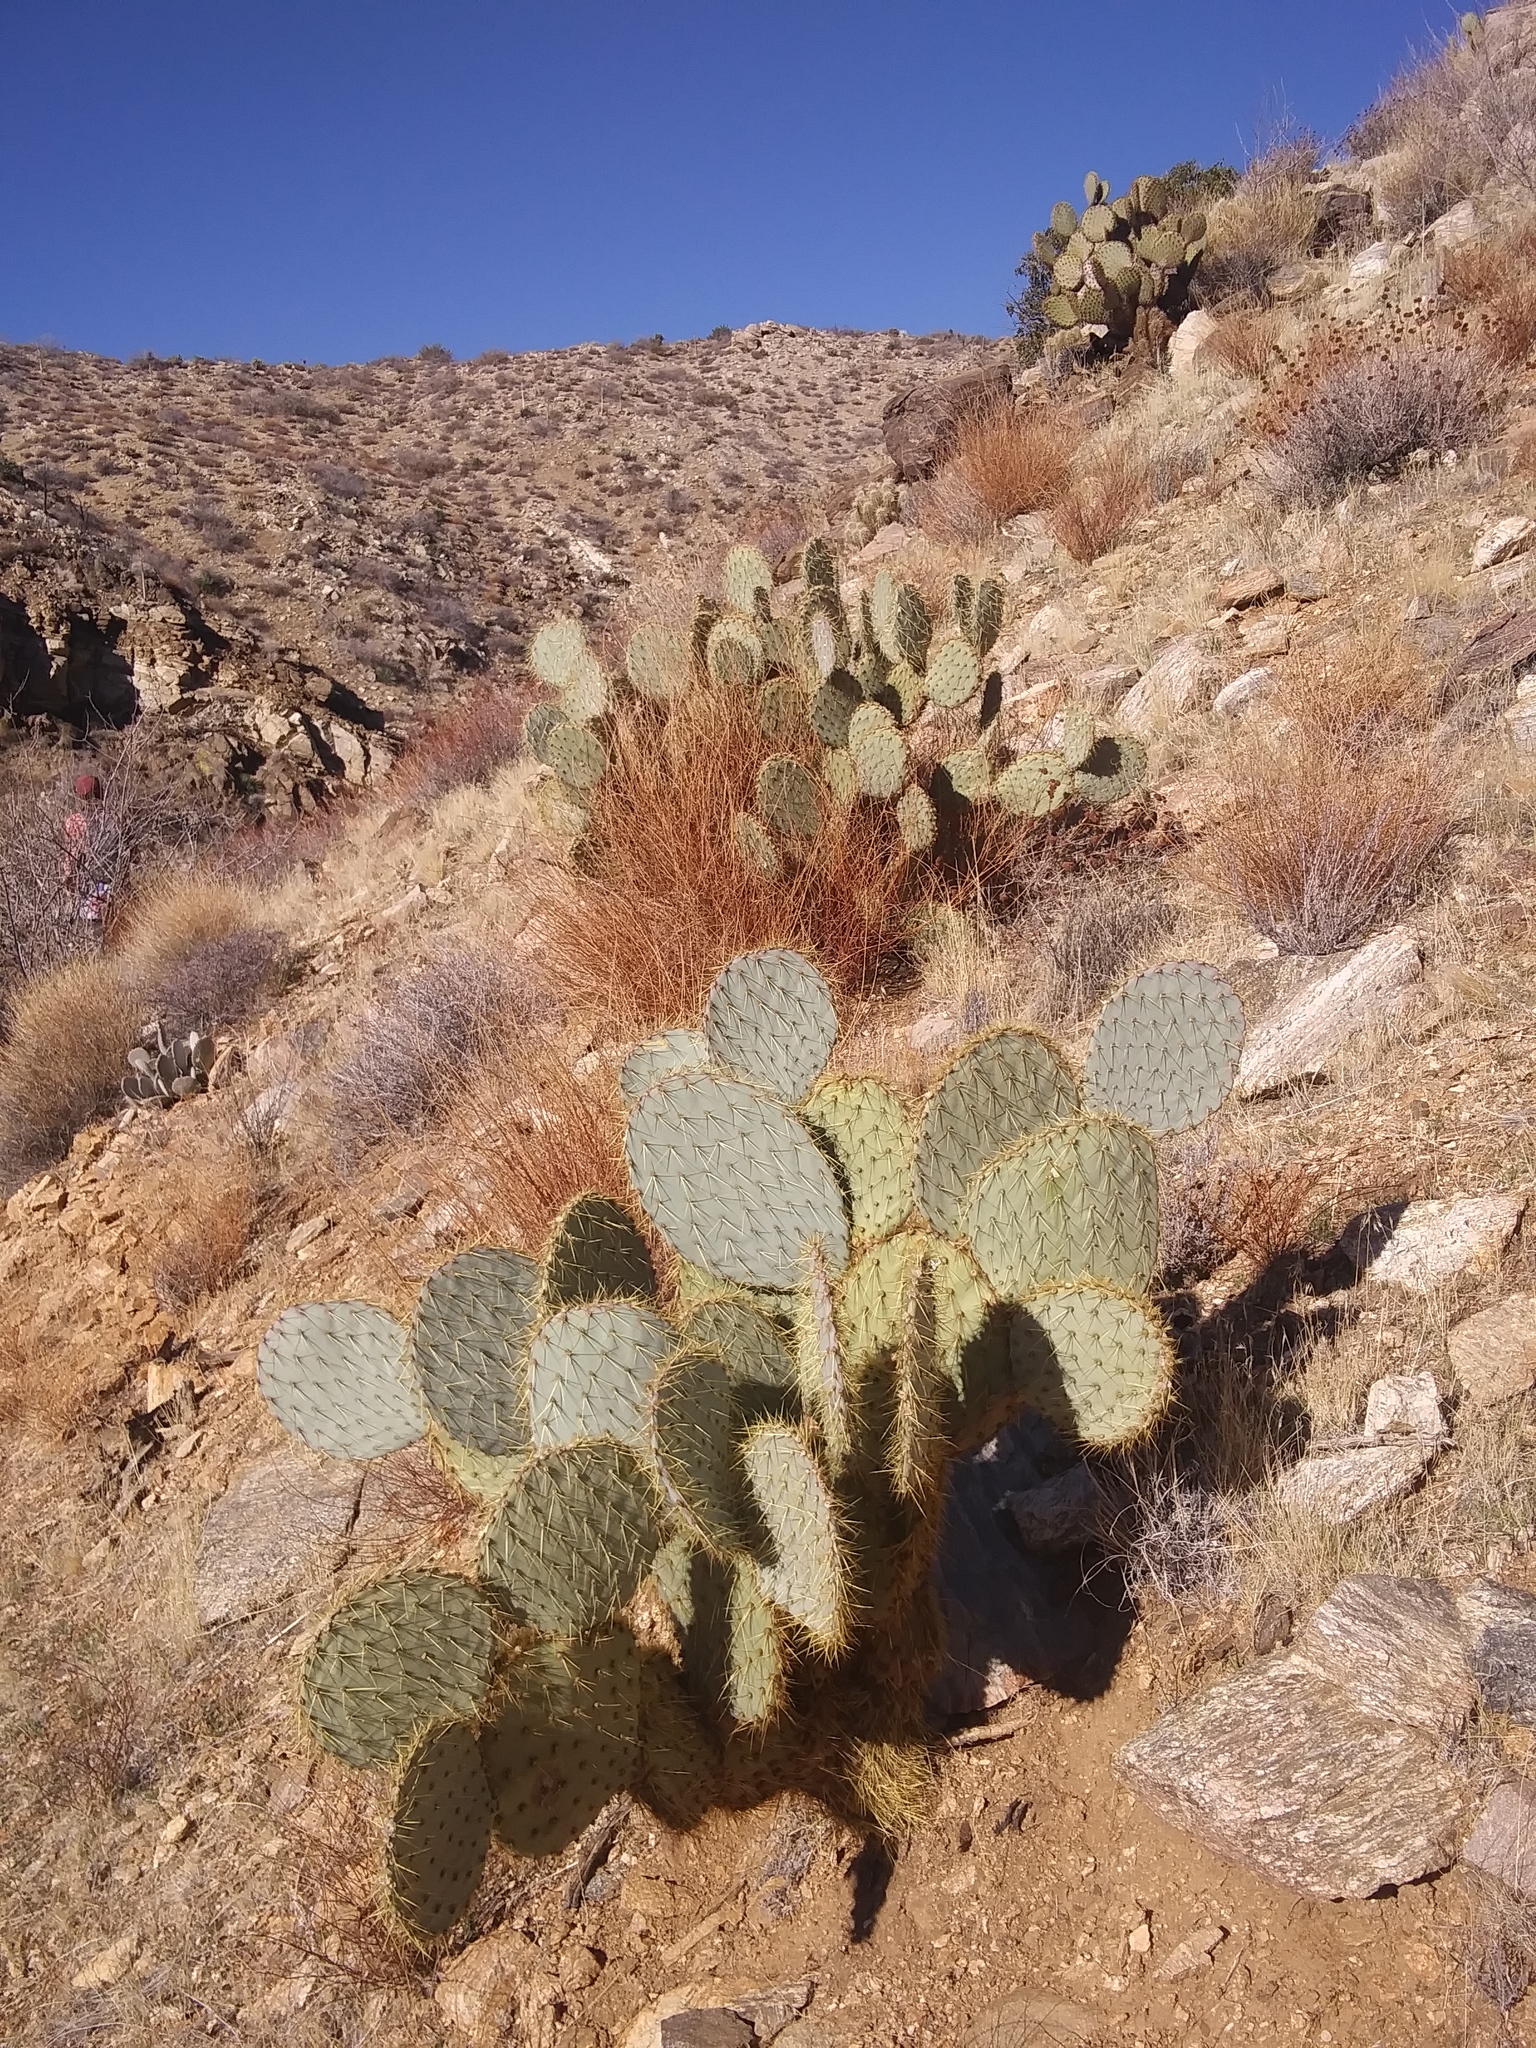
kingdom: Plantae
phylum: Tracheophyta
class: Magnoliopsida
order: Caryophyllales
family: Cactaceae
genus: Opuntia
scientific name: Opuntia chlorotica
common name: Dollar-joint prickly-pear
